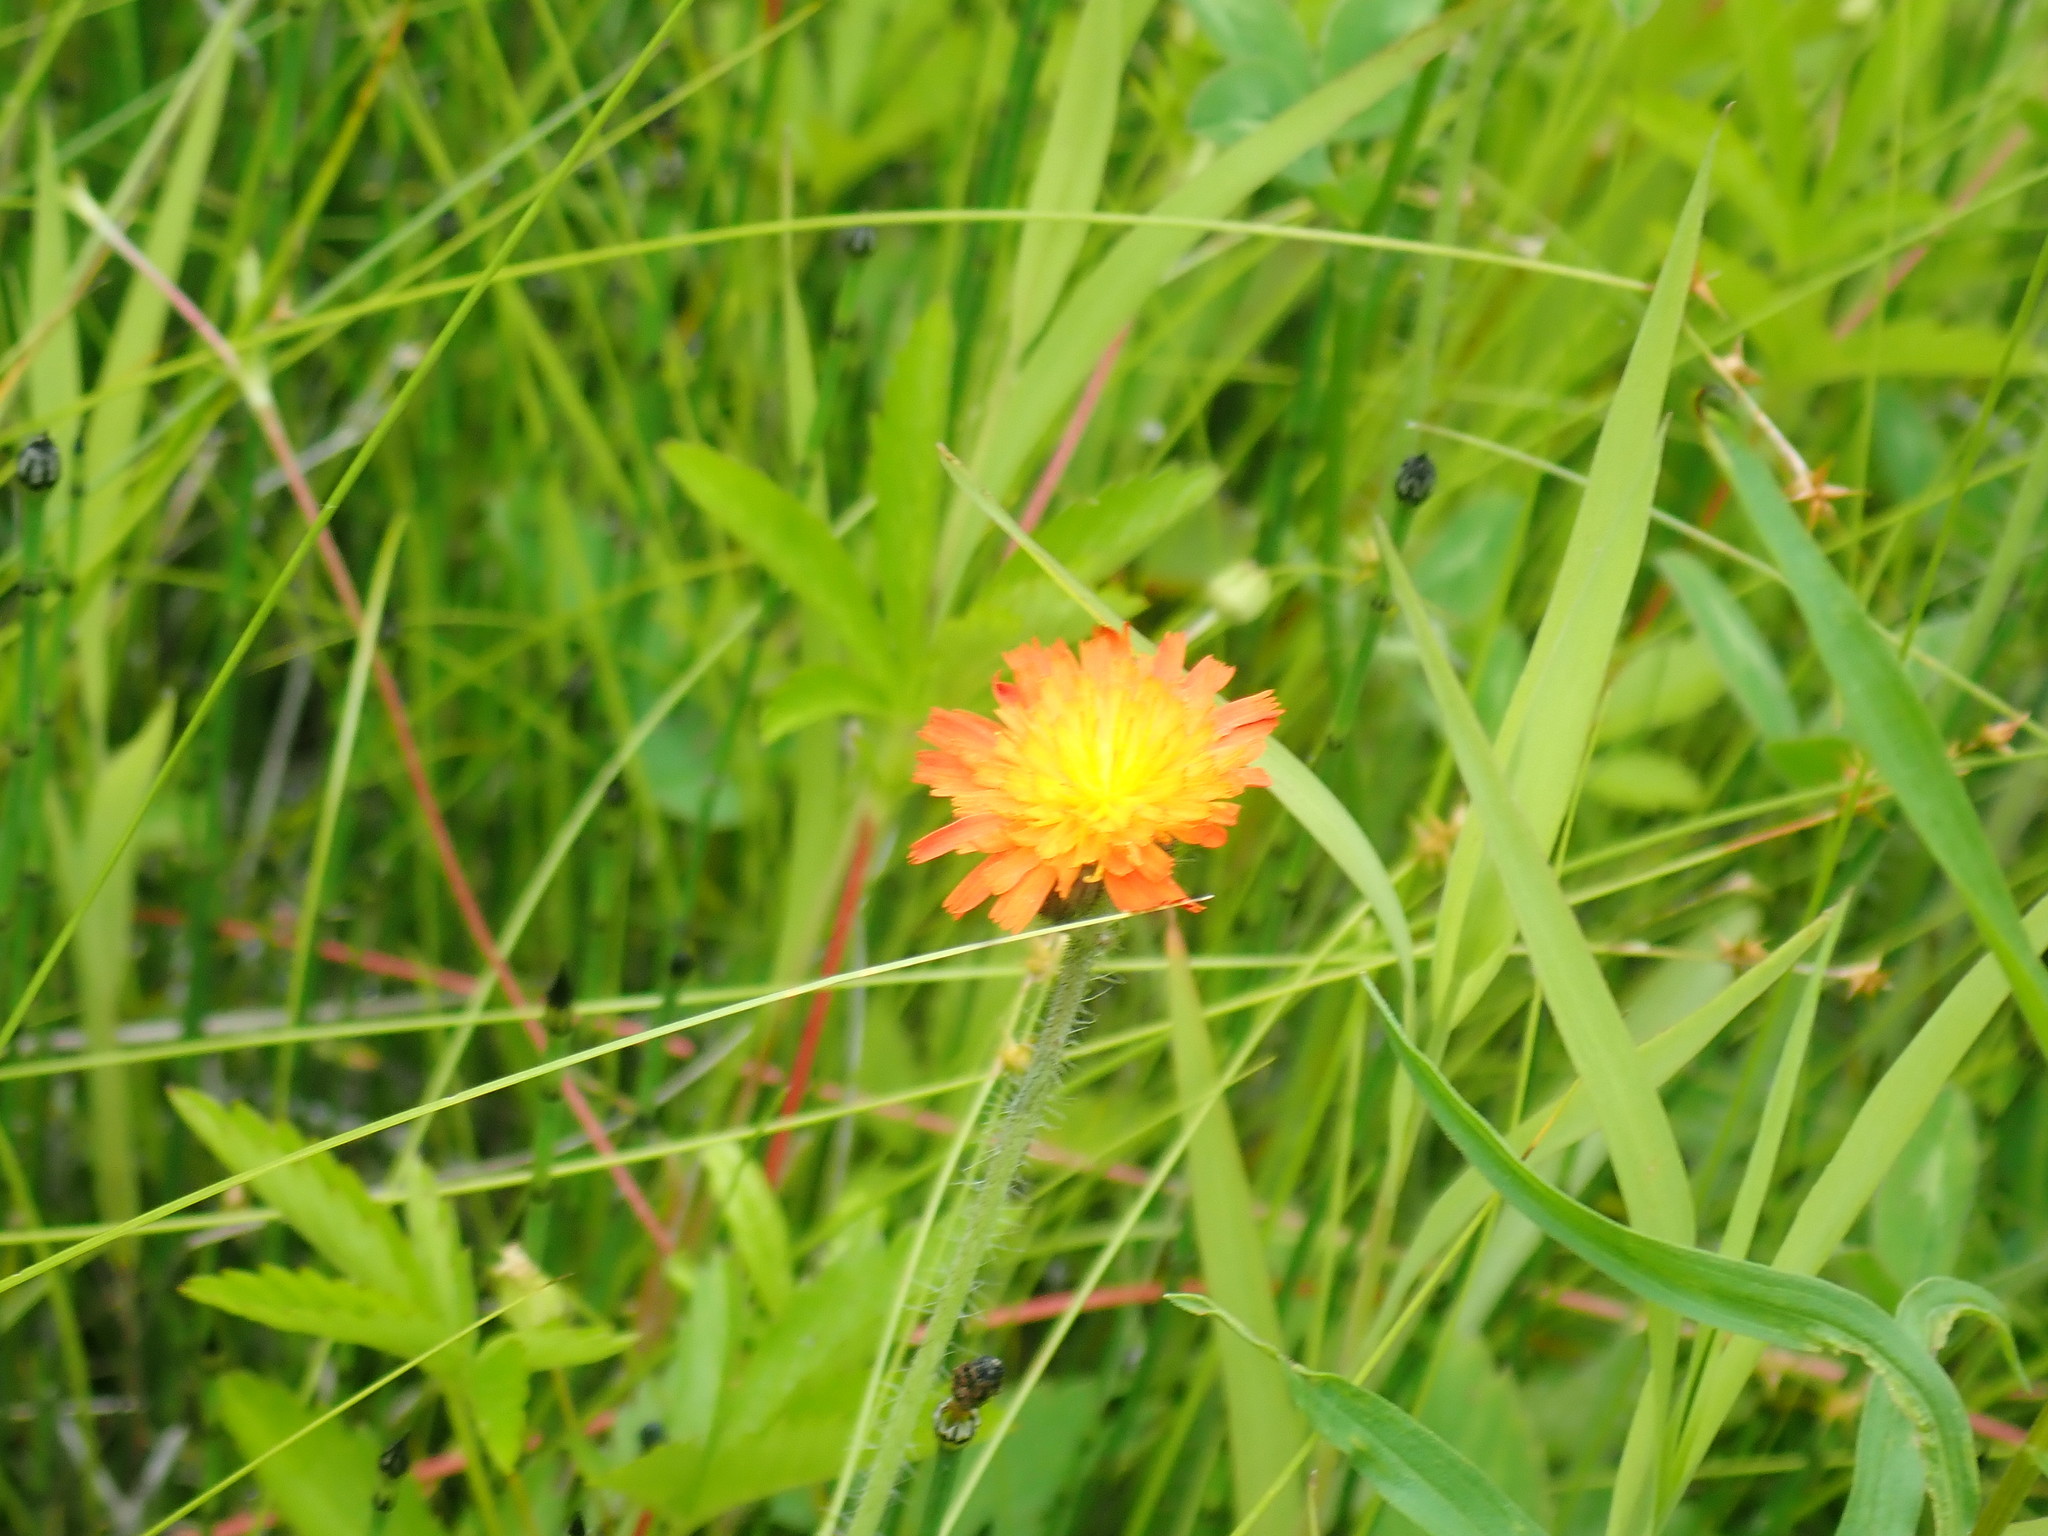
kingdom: Plantae
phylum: Tracheophyta
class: Magnoliopsida
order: Asterales
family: Asteraceae
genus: Pilosella
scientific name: Pilosella aurantiaca
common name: Fox-and-cubs
